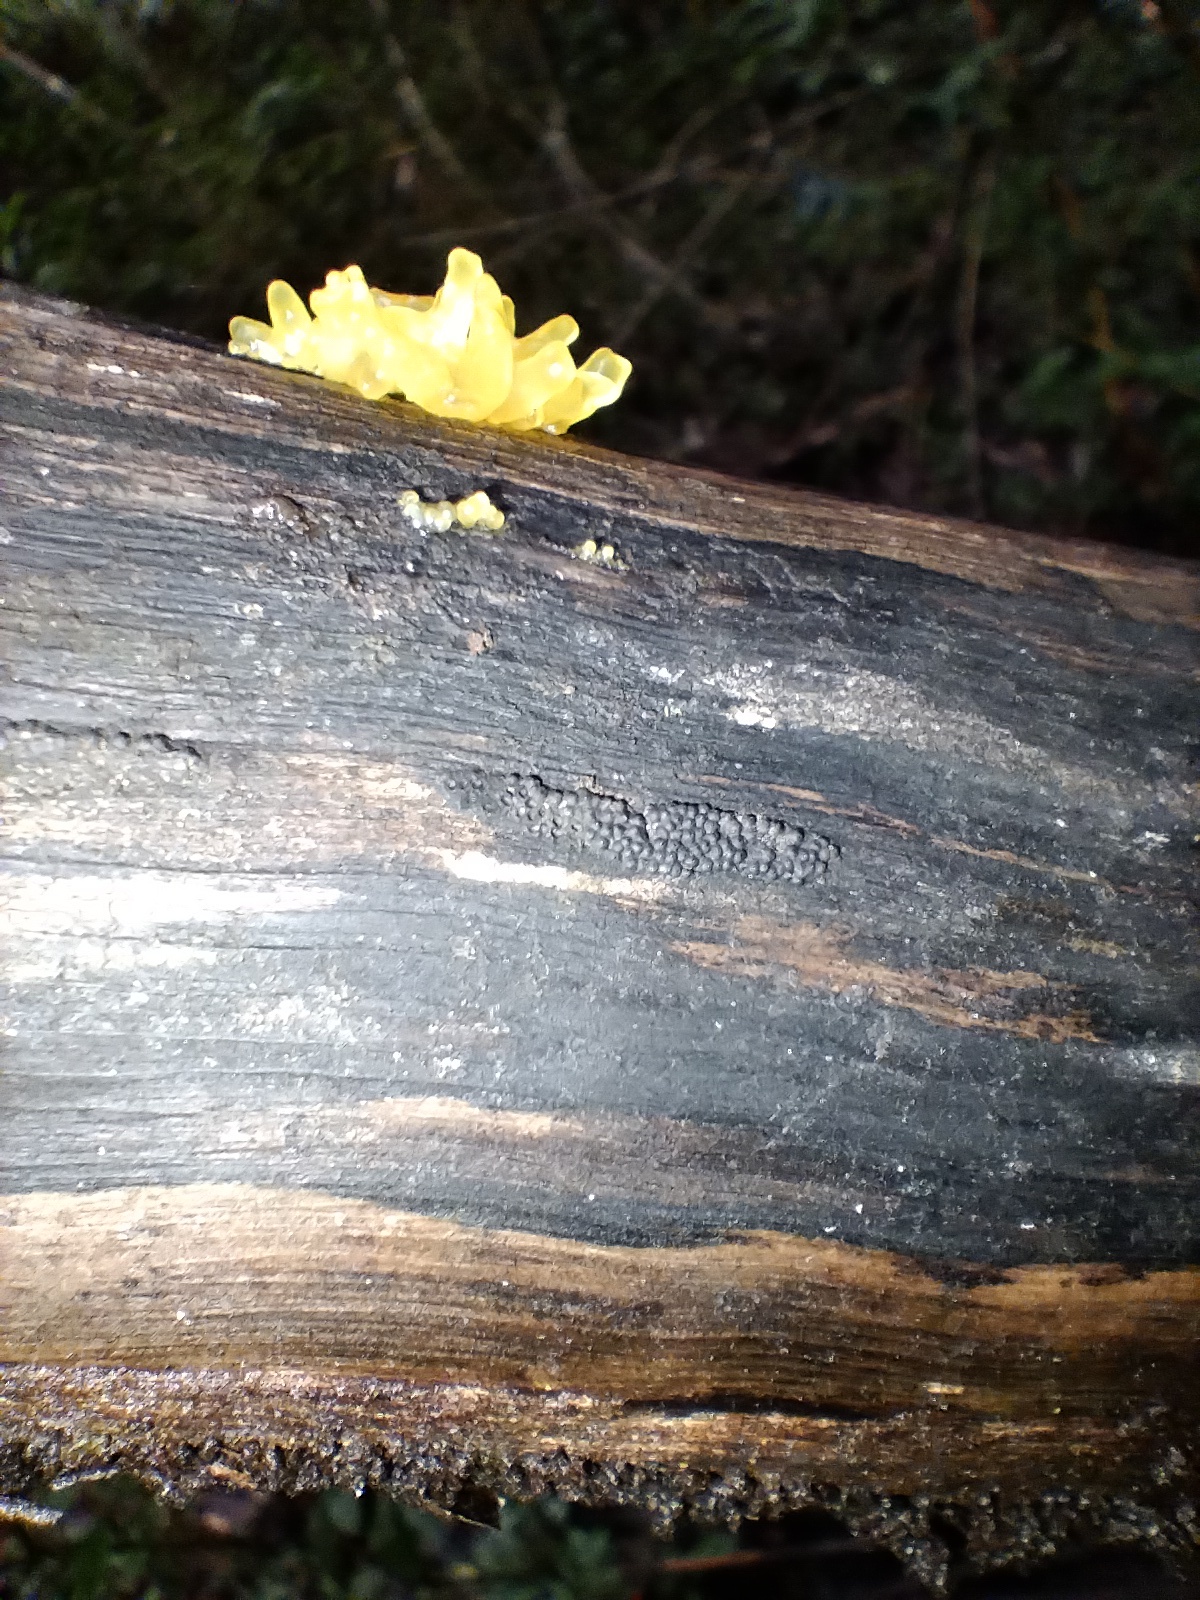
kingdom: Fungi
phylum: Ascomycota
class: Sordariomycetes
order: Xylariales
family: Hypoxylaceae
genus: Annulohypoxylon
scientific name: Annulohypoxylon bovei
